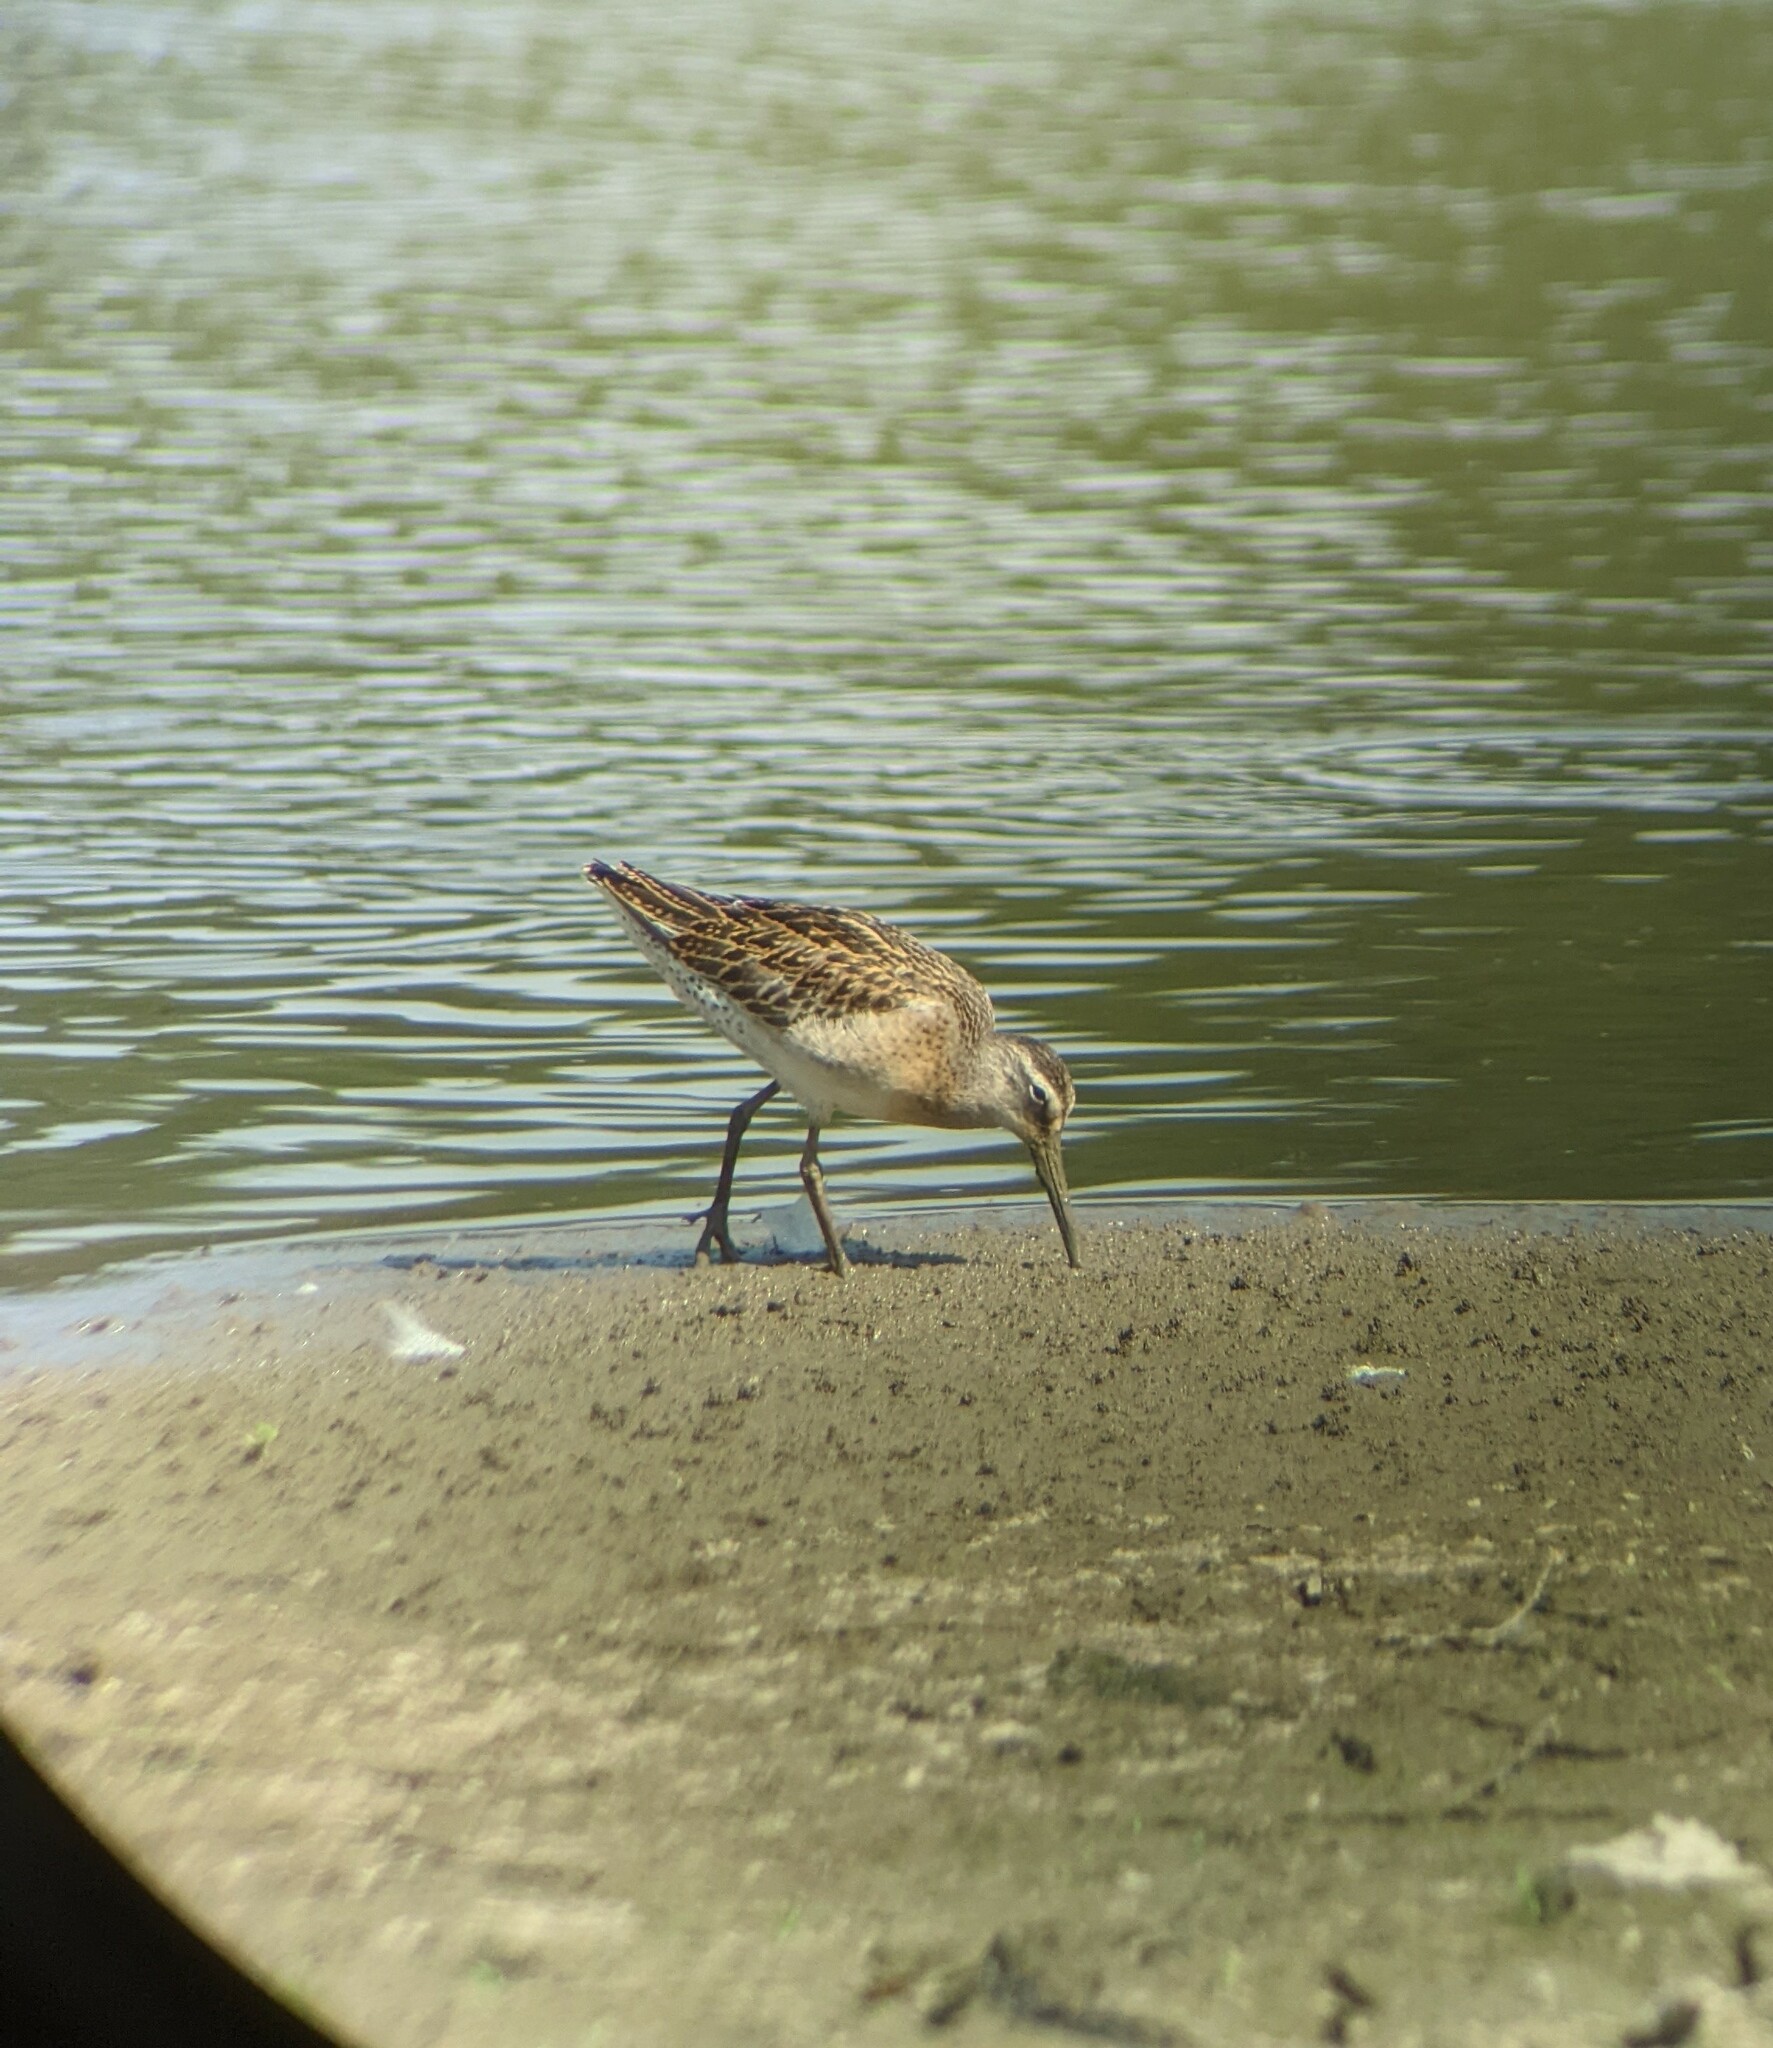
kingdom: Animalia
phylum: Chordata
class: Aves
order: Charadriiformes
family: Scolopacidae
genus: Limnodromus
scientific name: Limnodromus griseus
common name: Short-billed dowitcher
